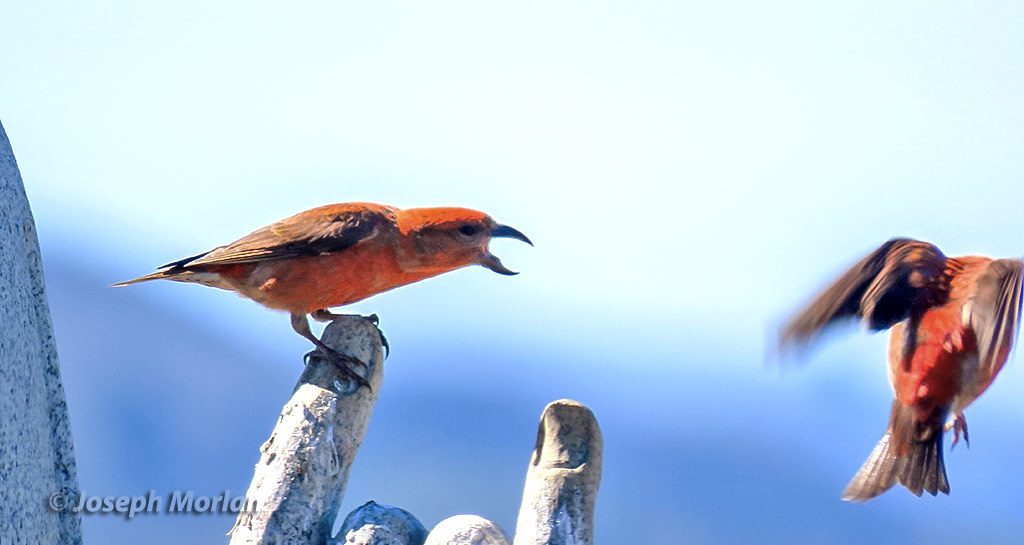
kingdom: Animalia
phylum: Chordata
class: Aves
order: Passeriformes
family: Fringillidae
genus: Loxia
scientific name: Loxia curvirostra
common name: Red crossbill
